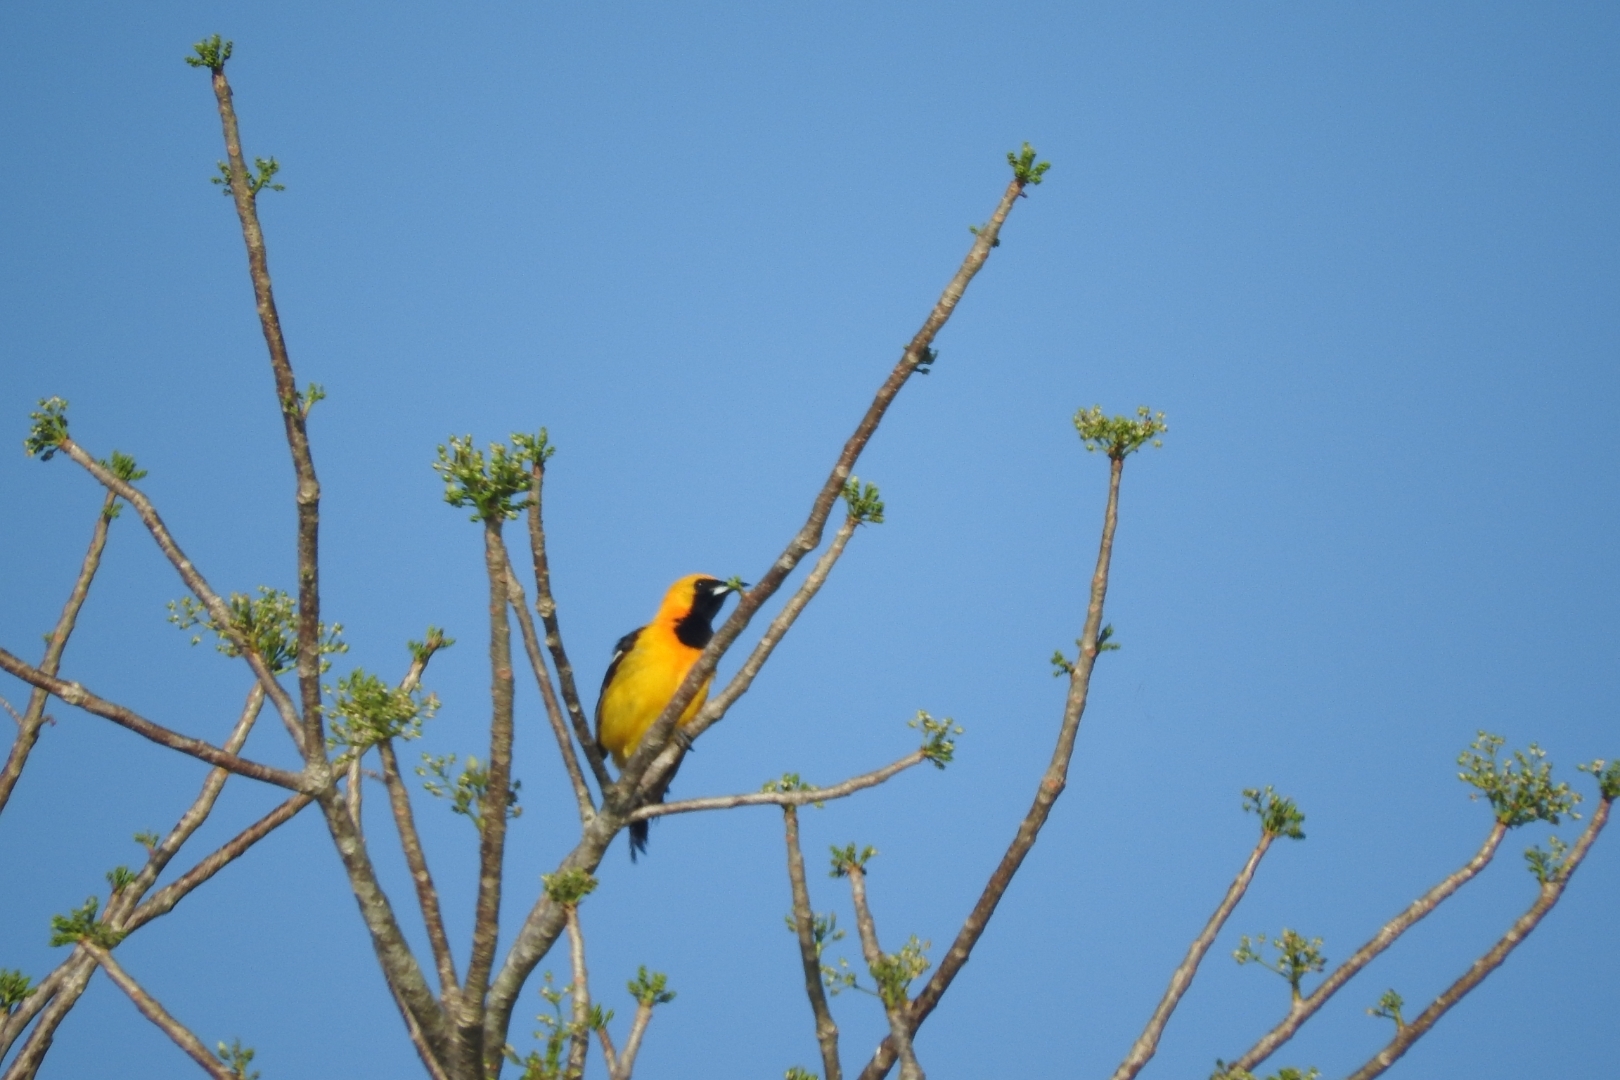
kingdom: Animalia
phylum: Chordata
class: Aves
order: Passeriformes
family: Icteridae
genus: Icterus
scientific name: Icterus cucullatus
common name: Hooded oriole
